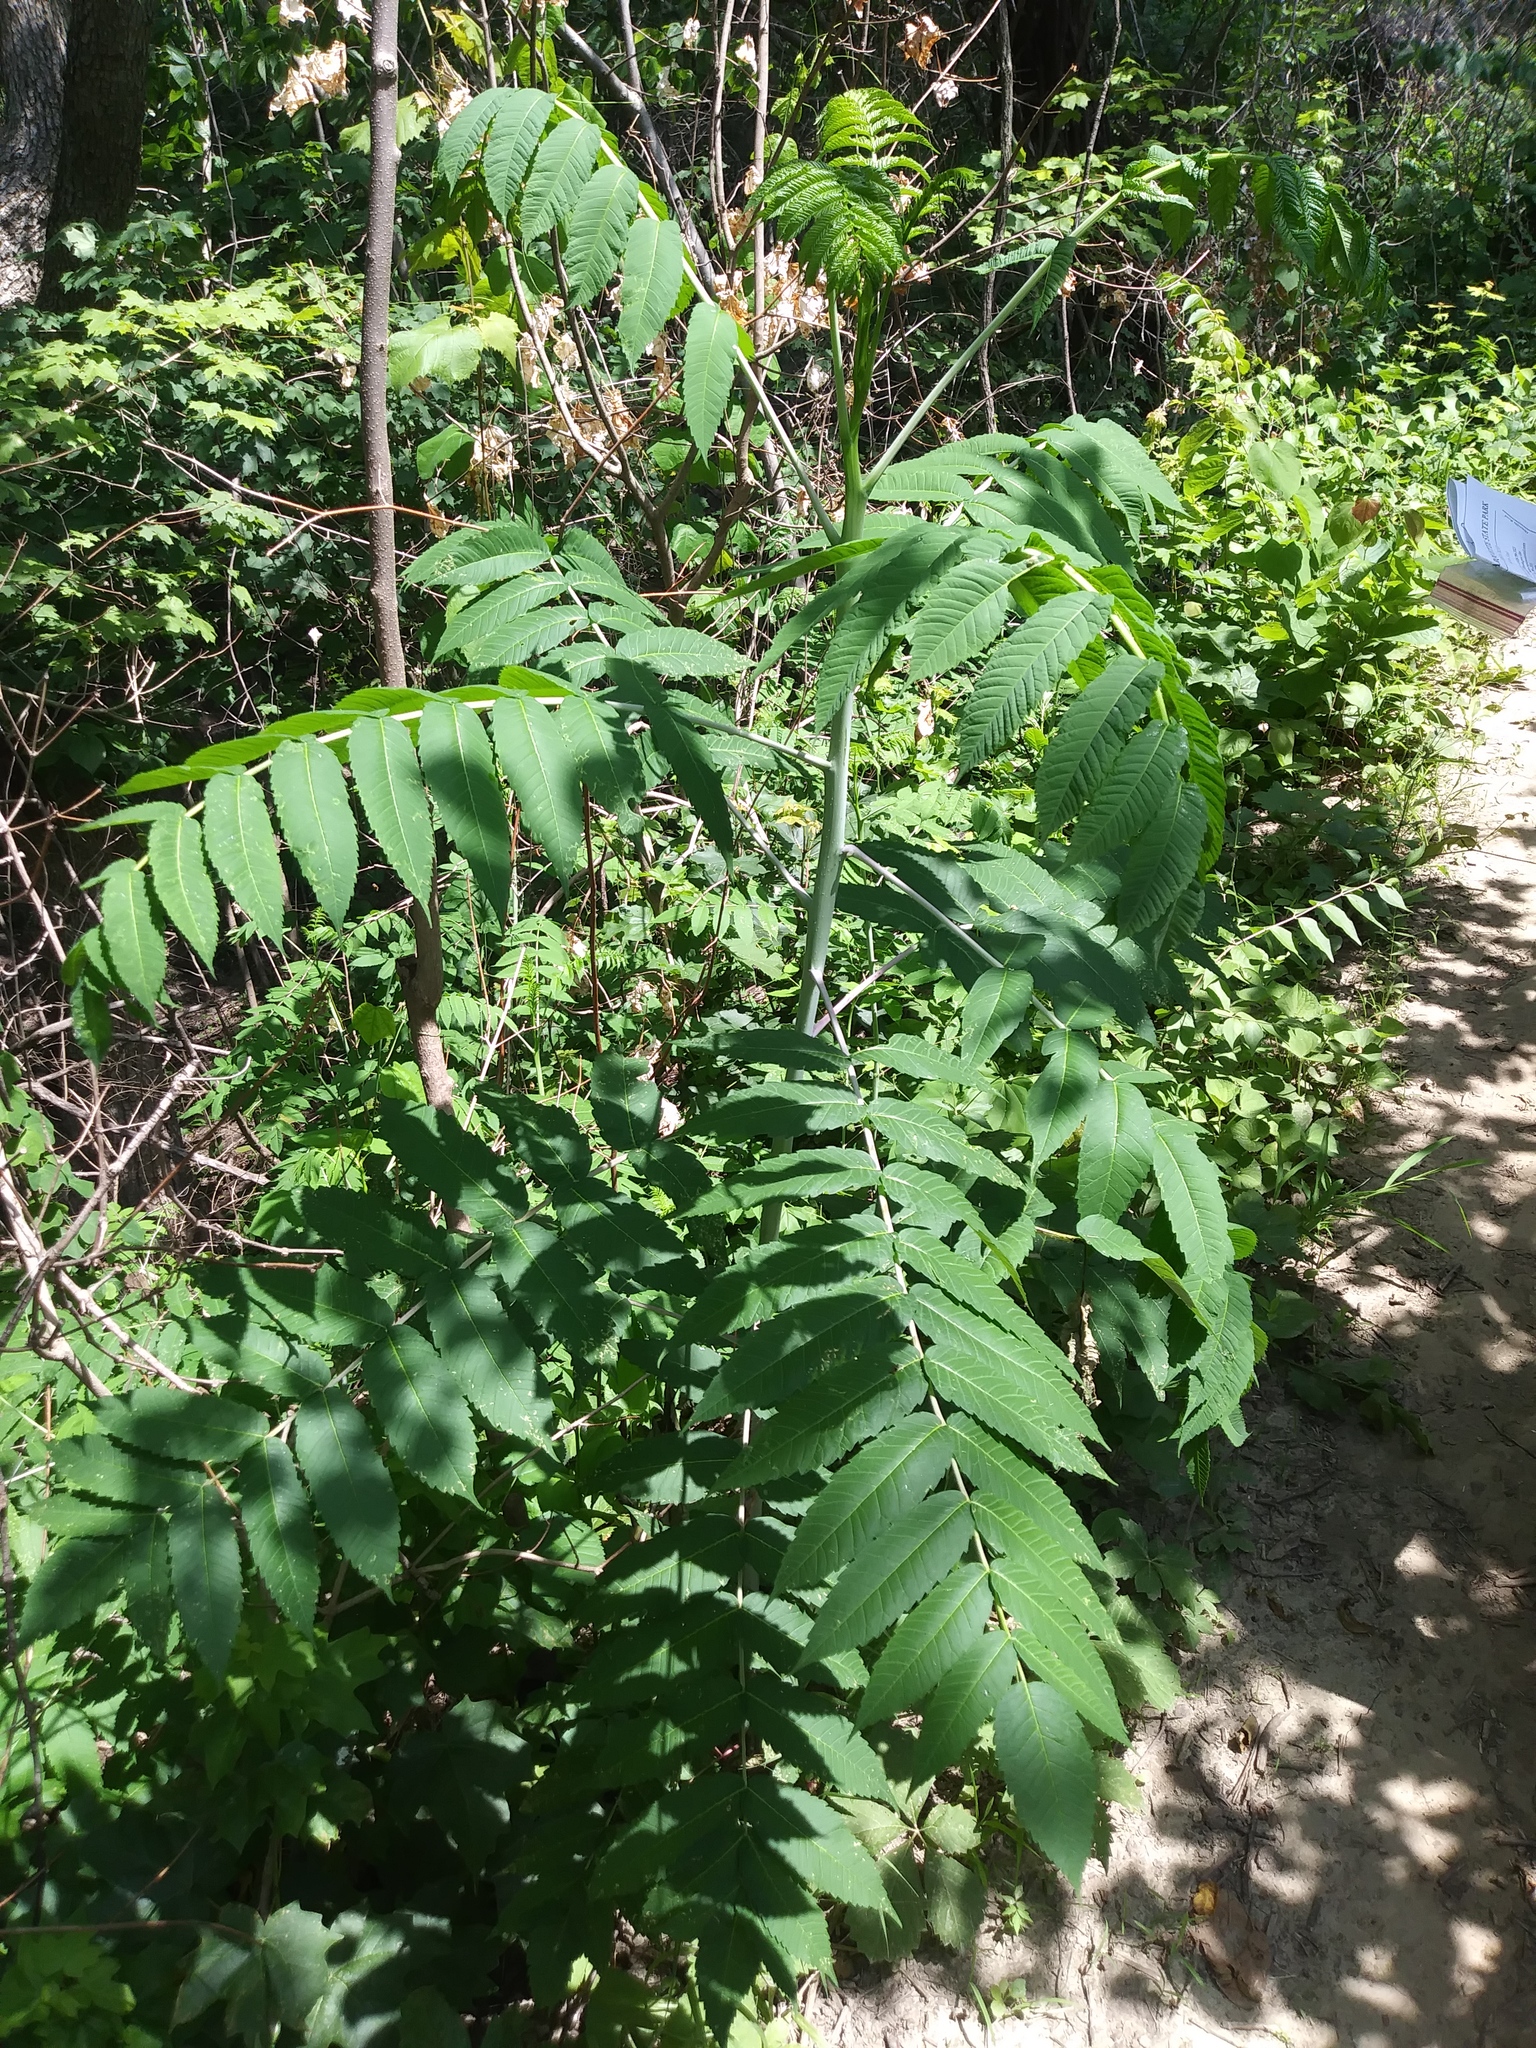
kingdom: Plantae
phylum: Tracheophyta
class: Magnoliopsida
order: Sapindales
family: Anacardiaceae
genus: Rhus
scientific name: Rhus glabra
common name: Scarlet sumac
